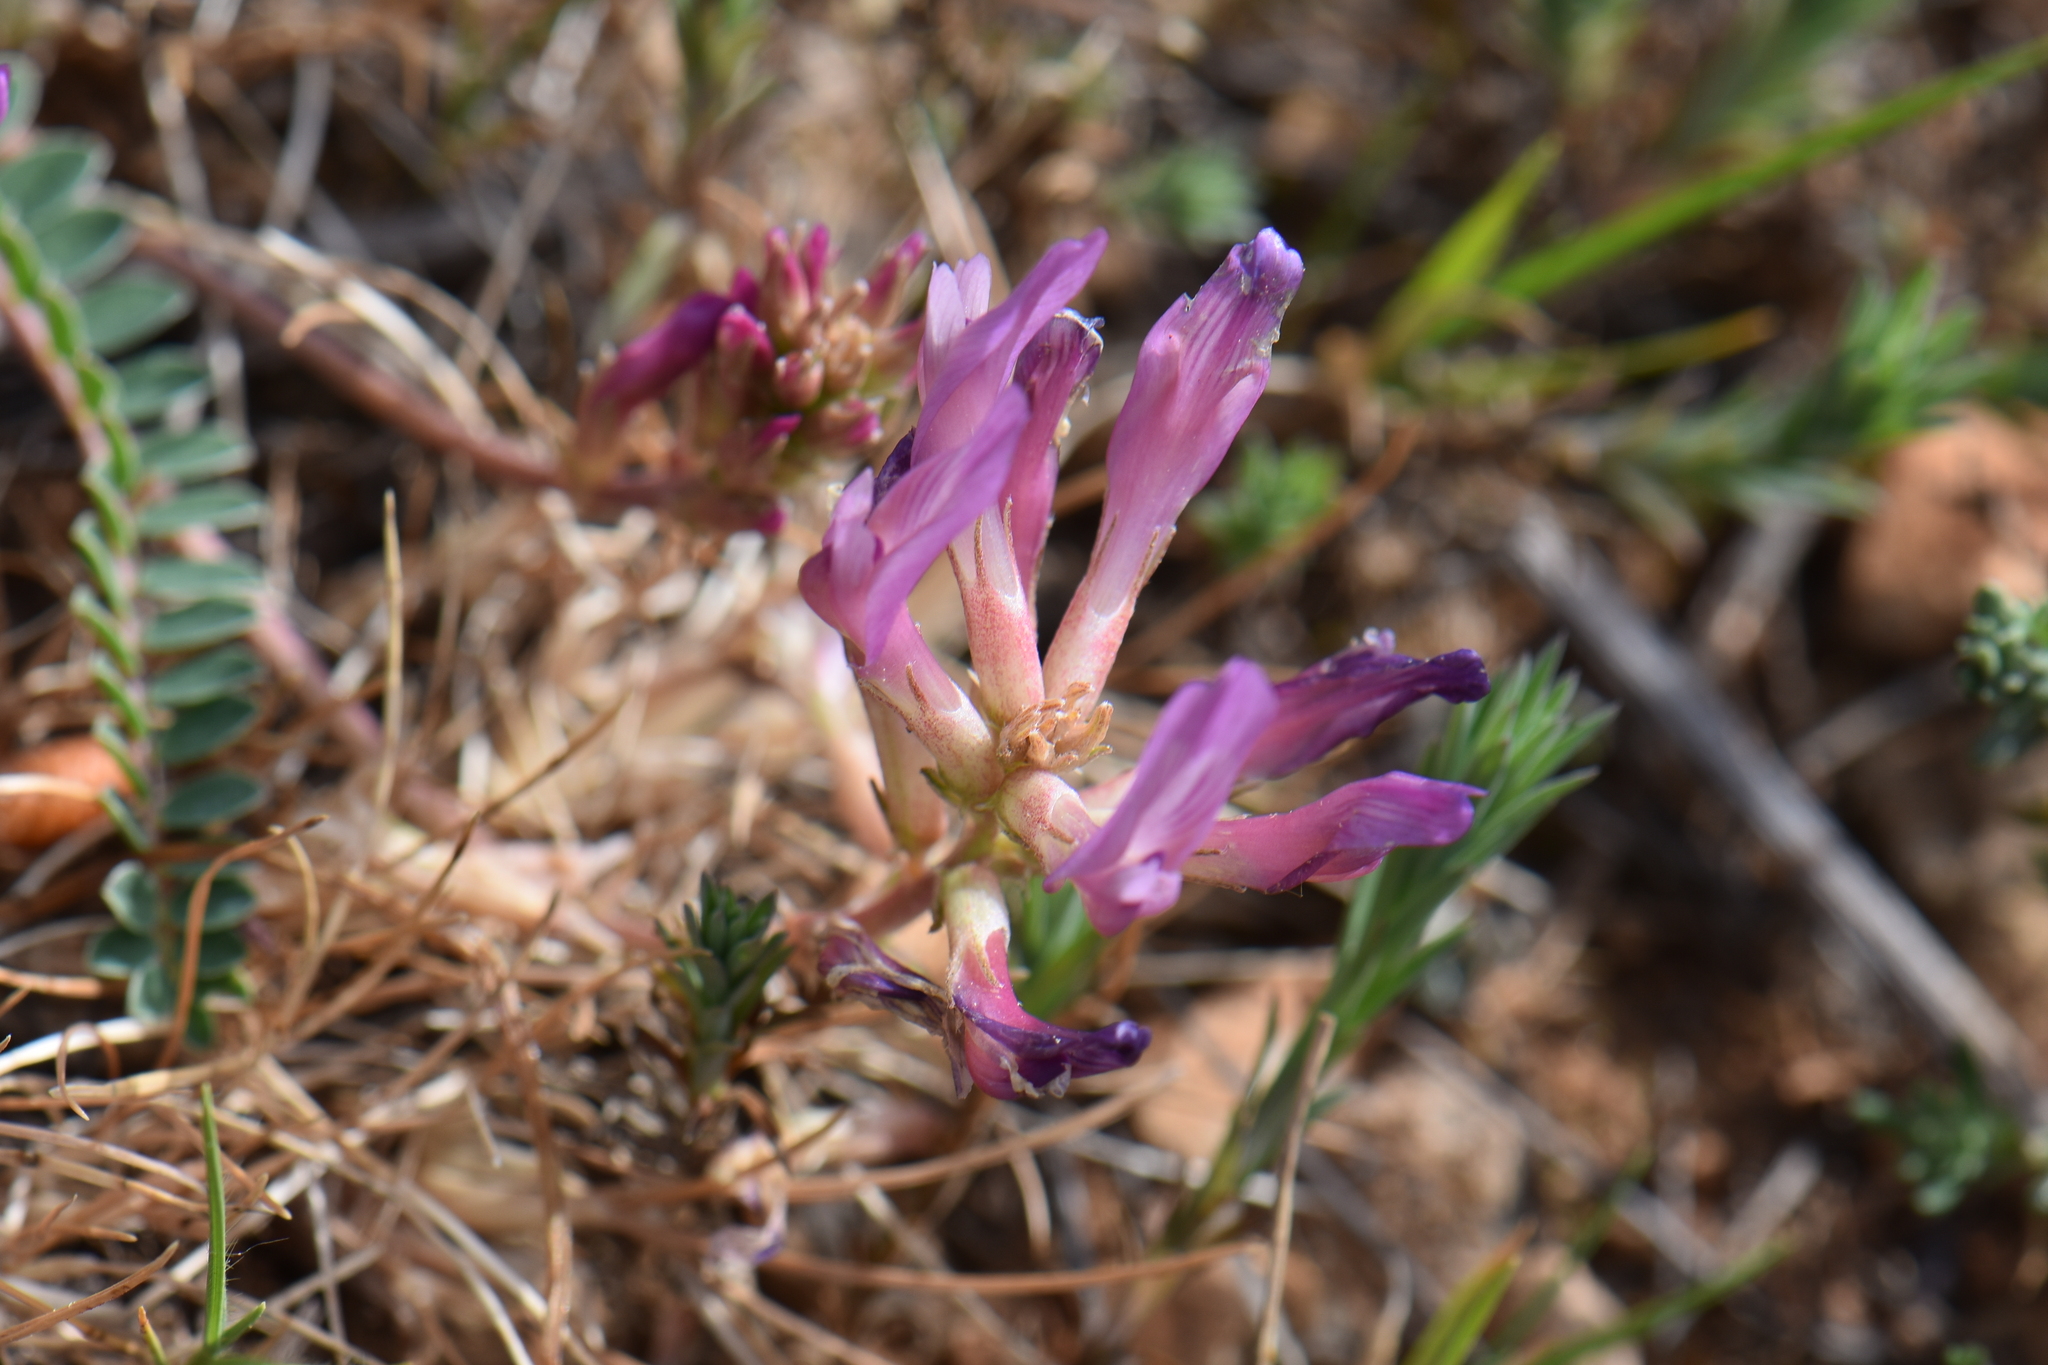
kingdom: Plantae
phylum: Tracheophyta
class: Magnoliopsida
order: Fabales
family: Fabaceae
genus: Astragalus
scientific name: Astragalus monspessulanus
